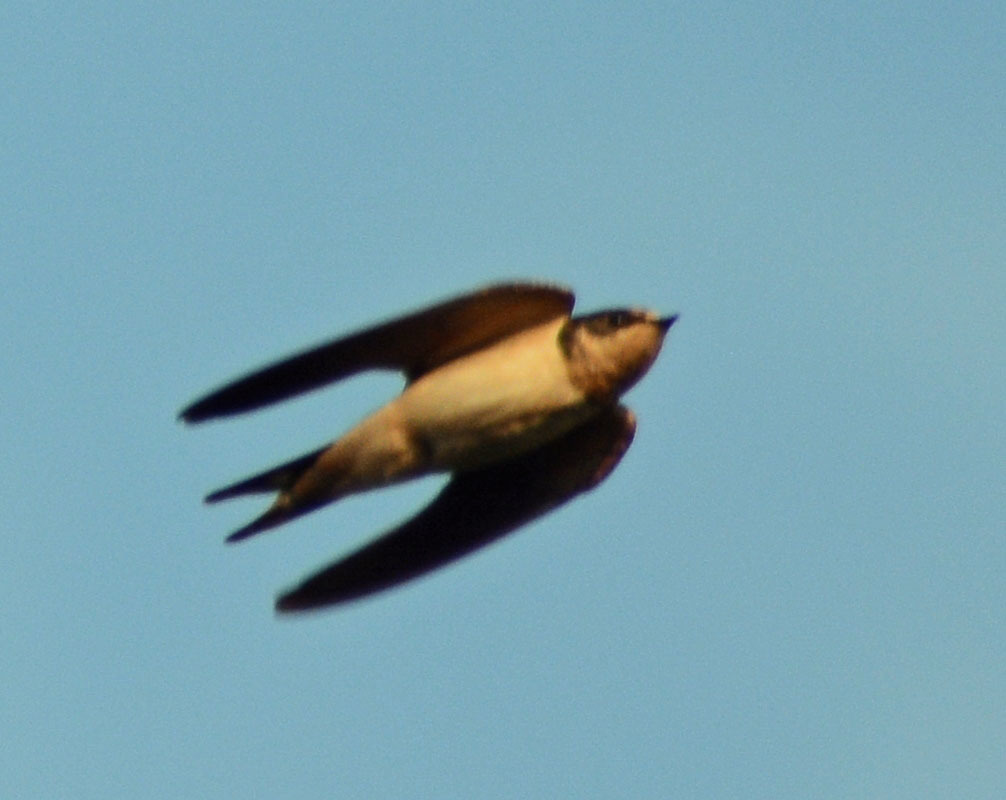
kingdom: Animalia
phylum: Chordata
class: Aves
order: Passeriformes
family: Hirundinidae
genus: Hirundo
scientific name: Hirundo rustica
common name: Barn swallow
